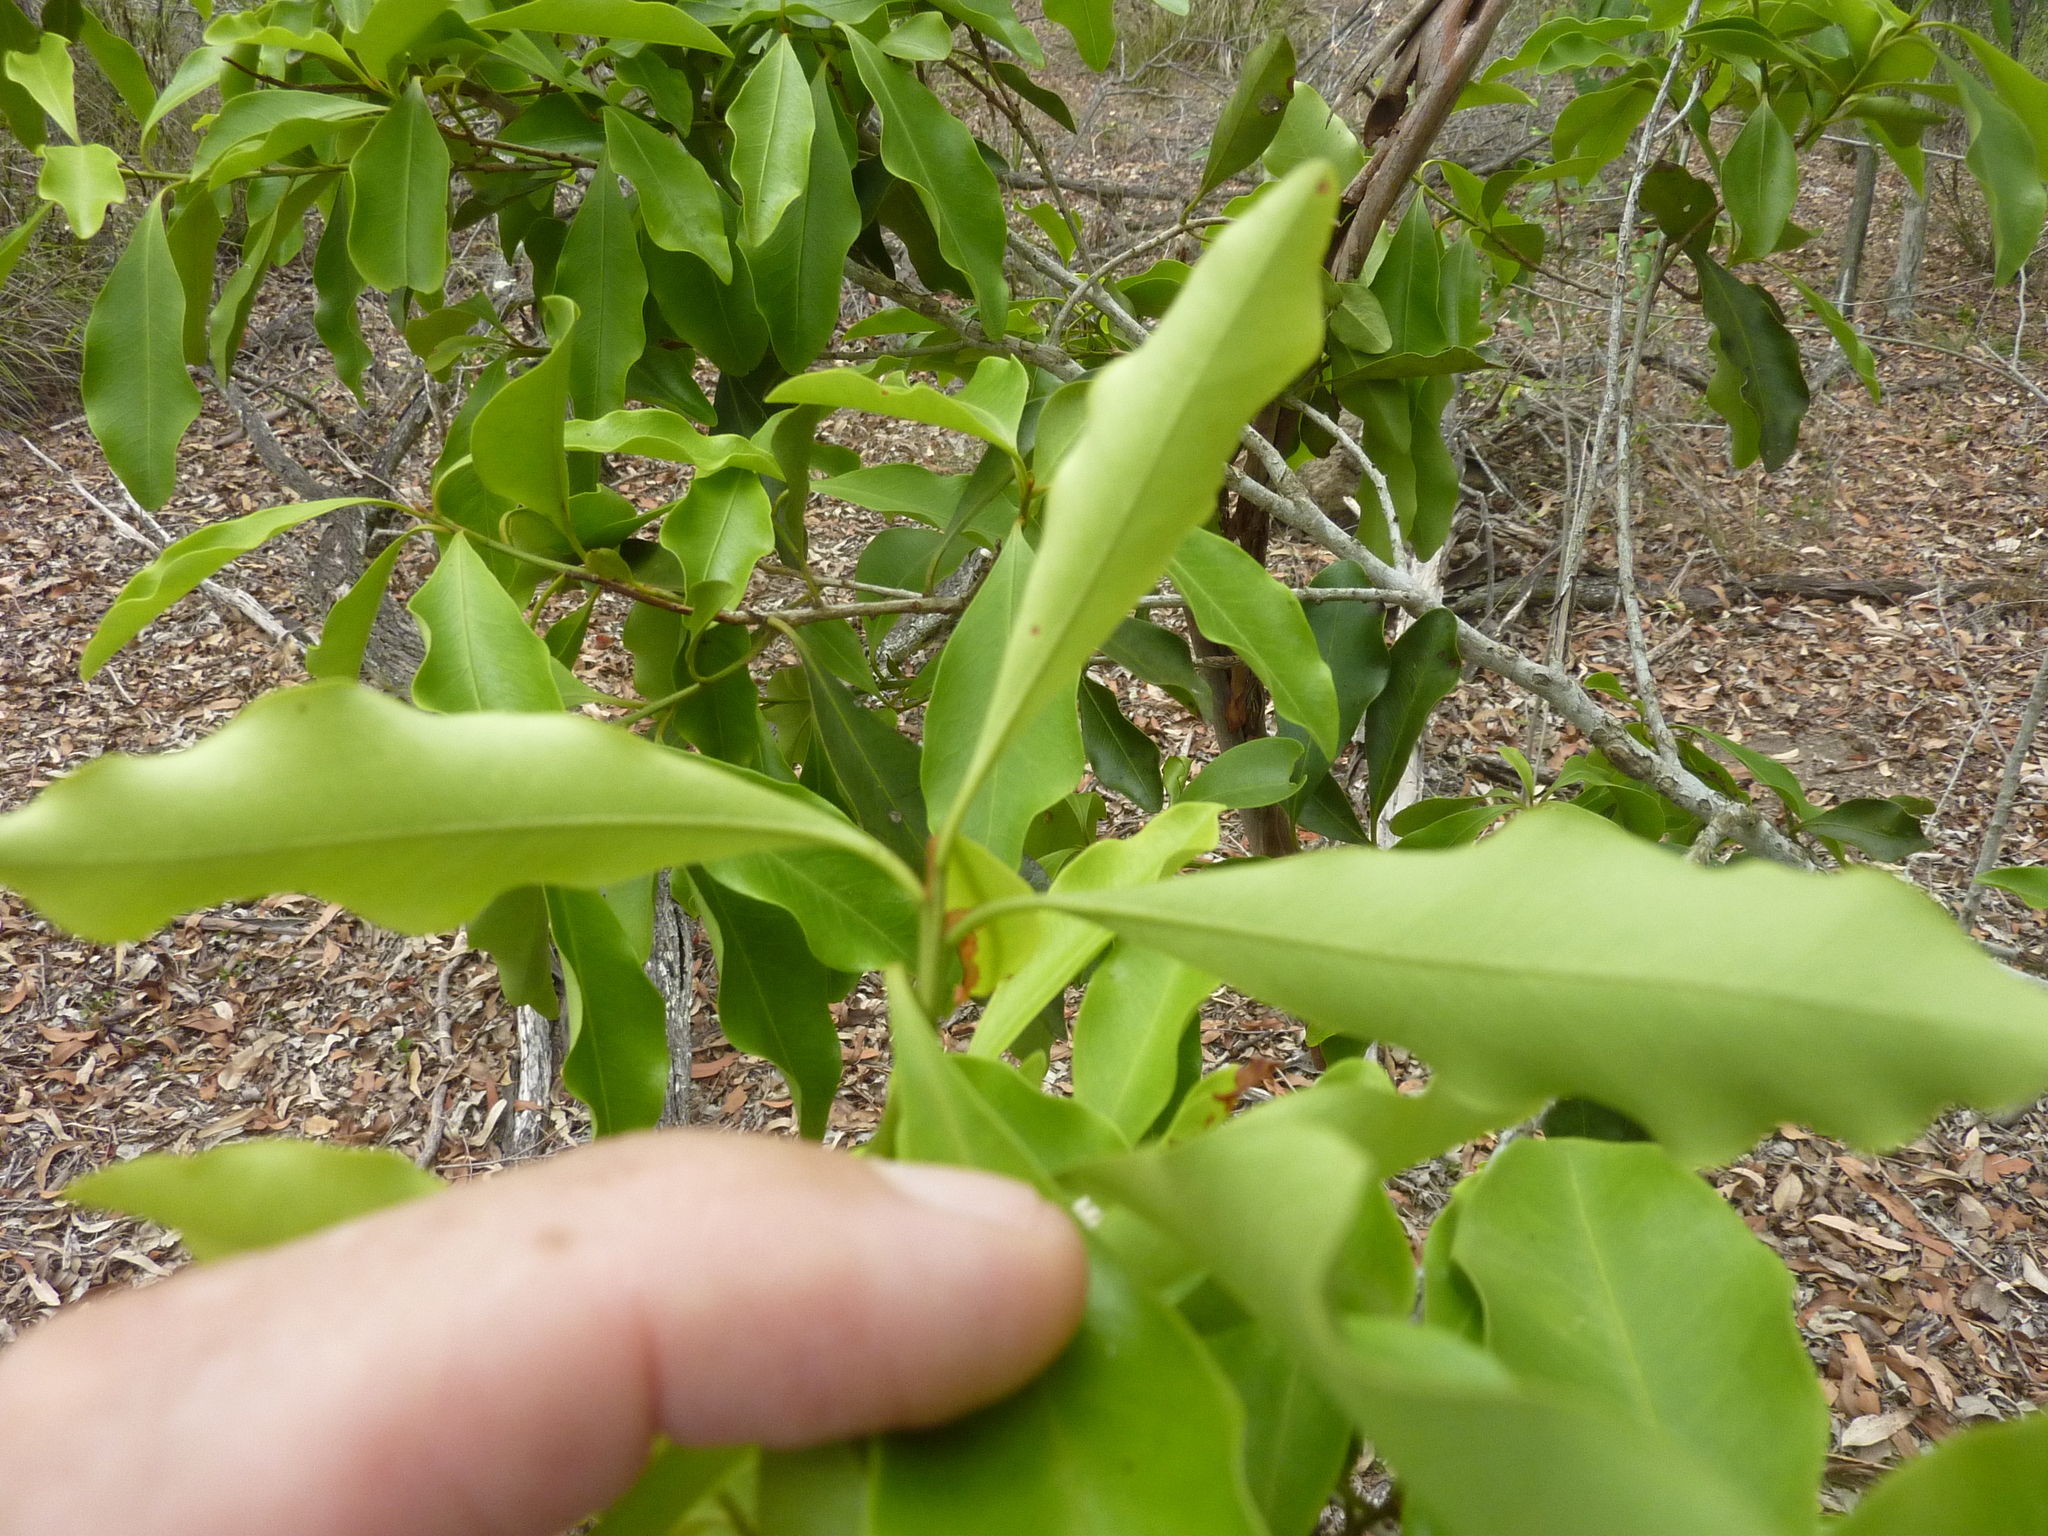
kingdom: Plantae
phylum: Tracheophyta
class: Magnoliopsida
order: Ericales
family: Primulaceae
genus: Myrsine
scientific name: Myrsine variabilis
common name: Brush muttonwood
